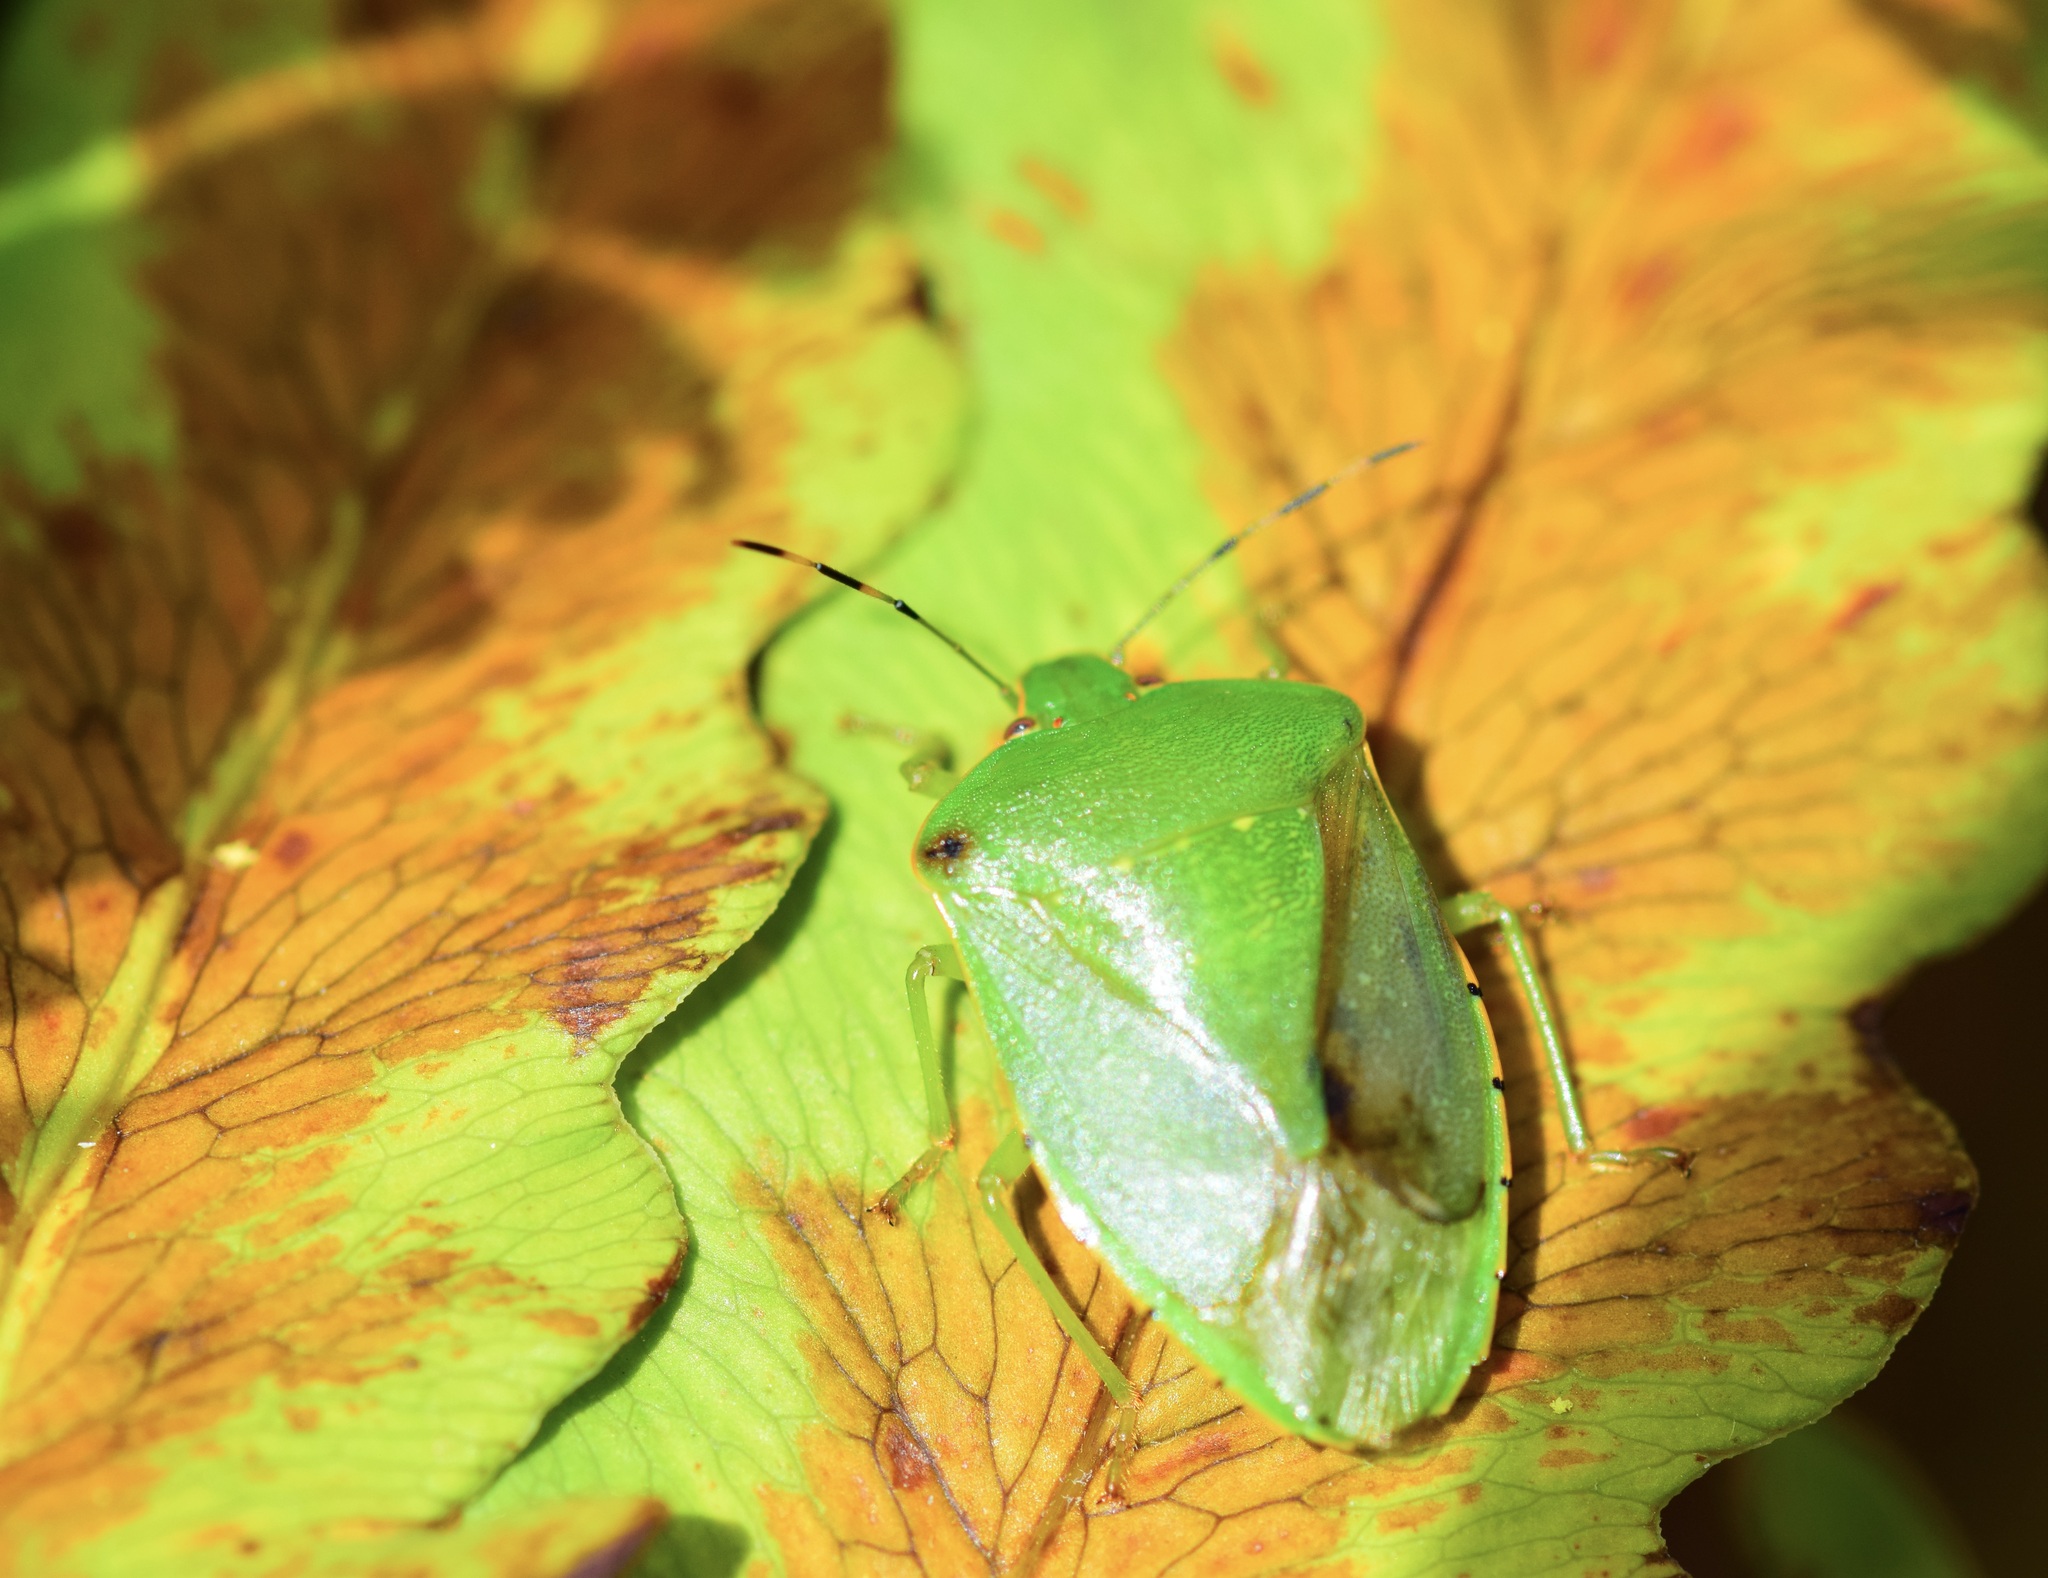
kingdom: Animalia
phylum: Arthropoda
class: Insecta
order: Hemiptera
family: Pentatomidae
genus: Chinavia
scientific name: Chinavia hilaris
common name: Green stink bug
